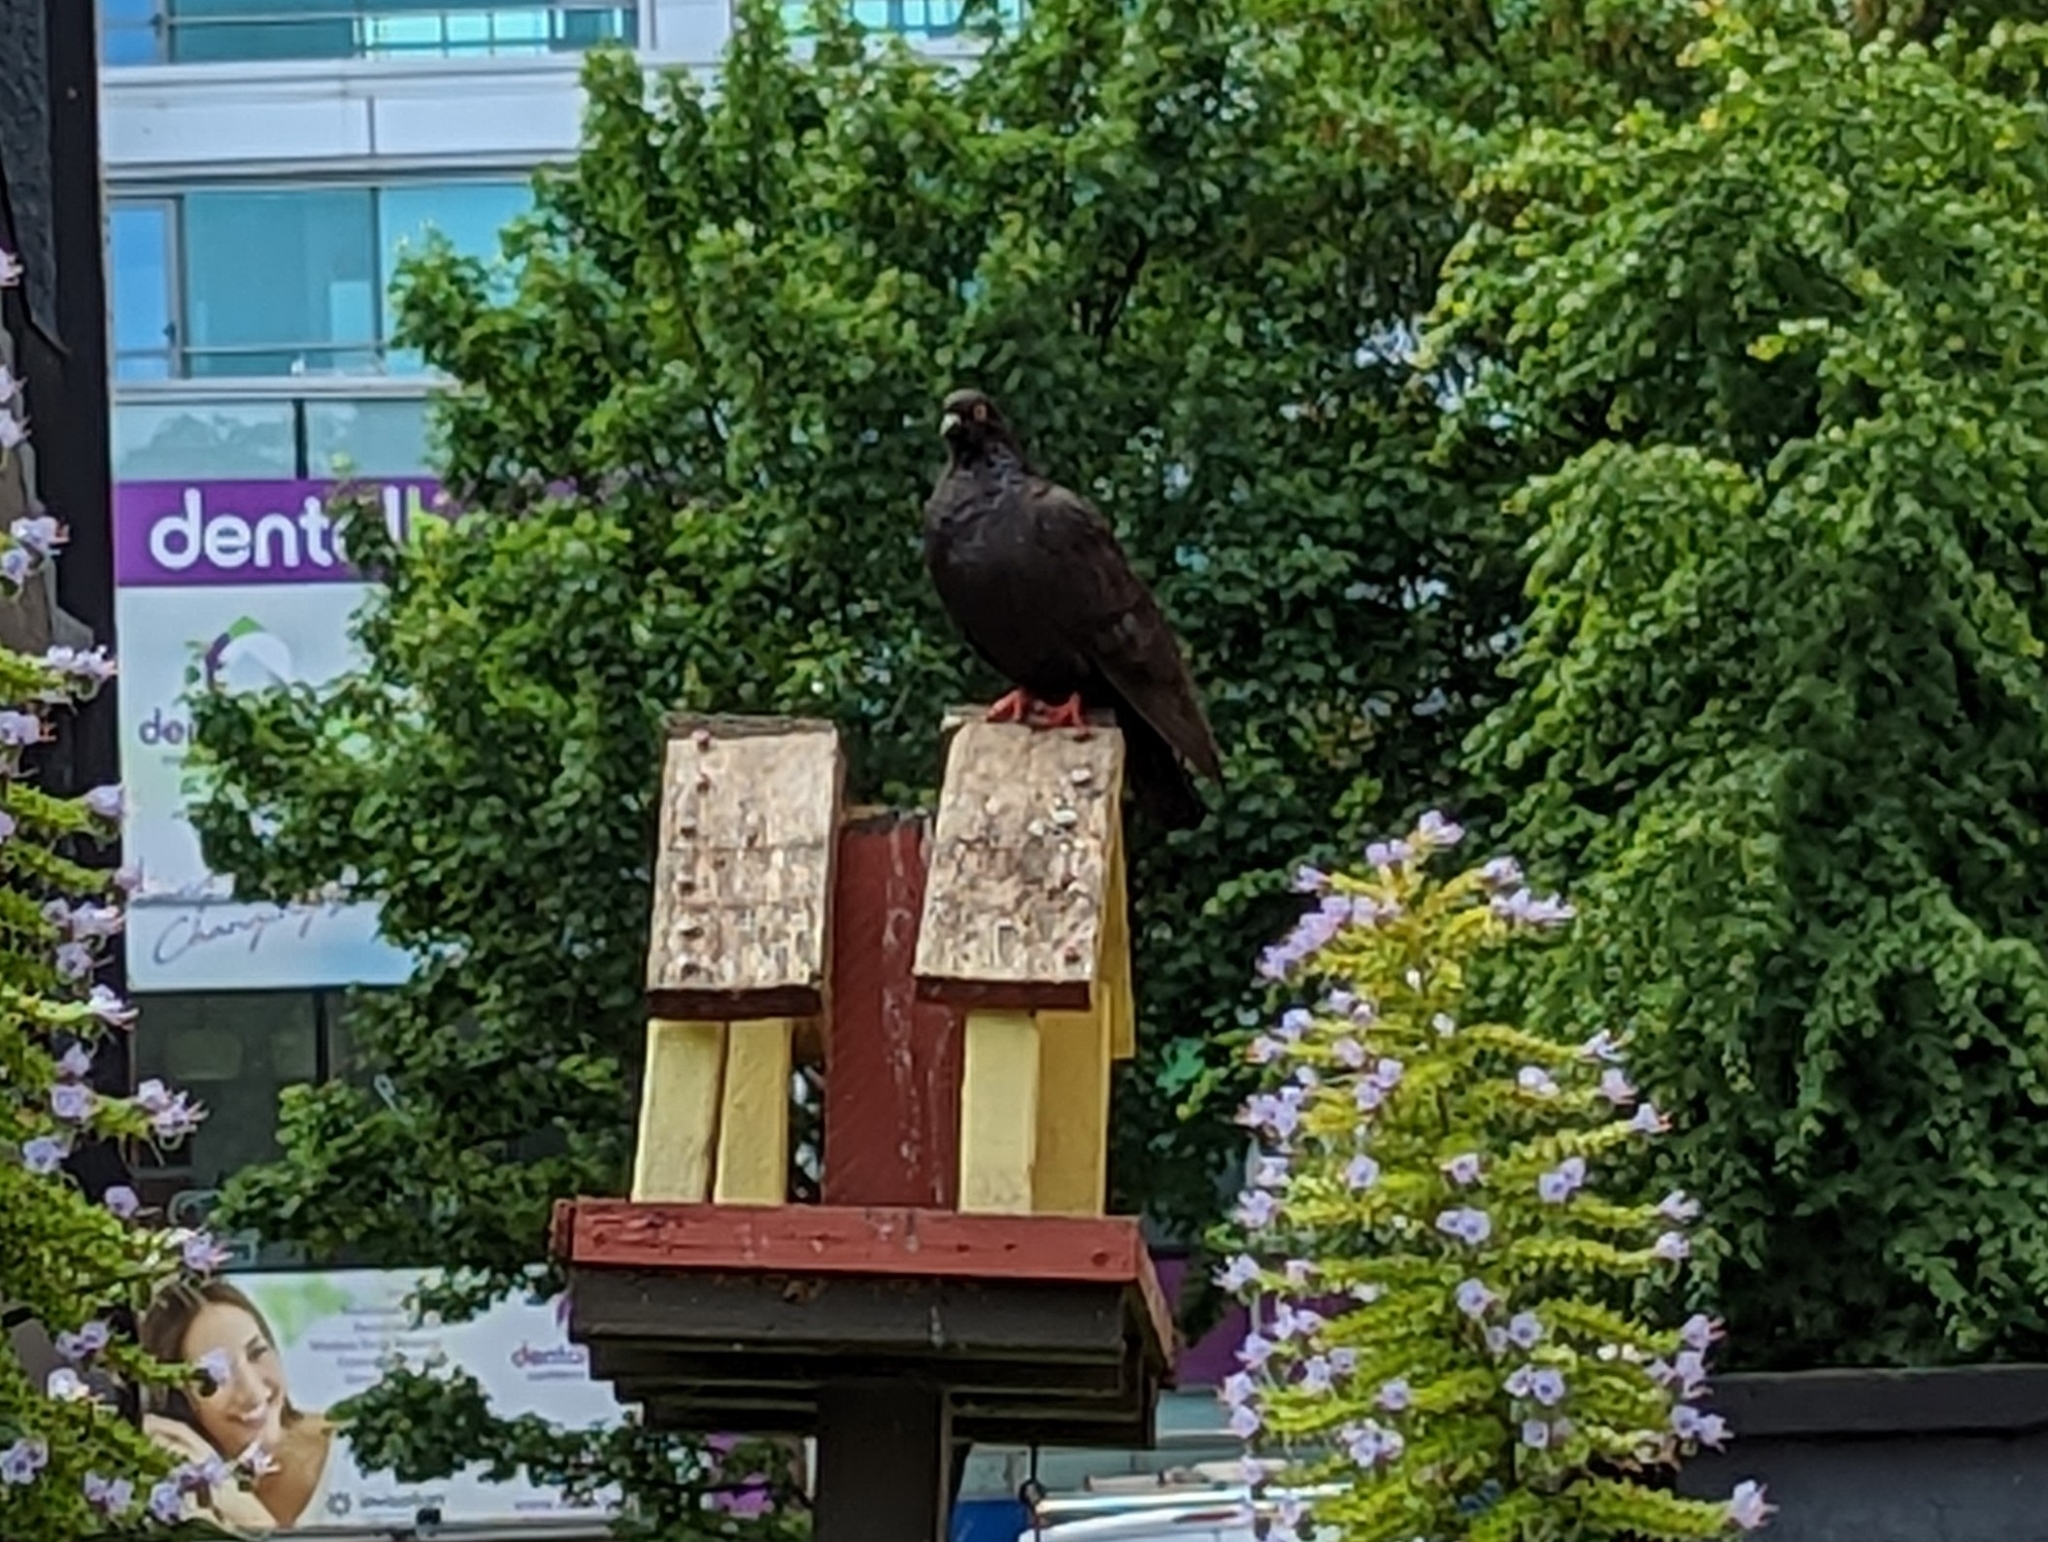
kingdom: Animalia
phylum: Chordata
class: Aves
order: Columbiformes
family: Columbidae
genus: Columba
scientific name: Columba livia
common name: Rock pigeon
